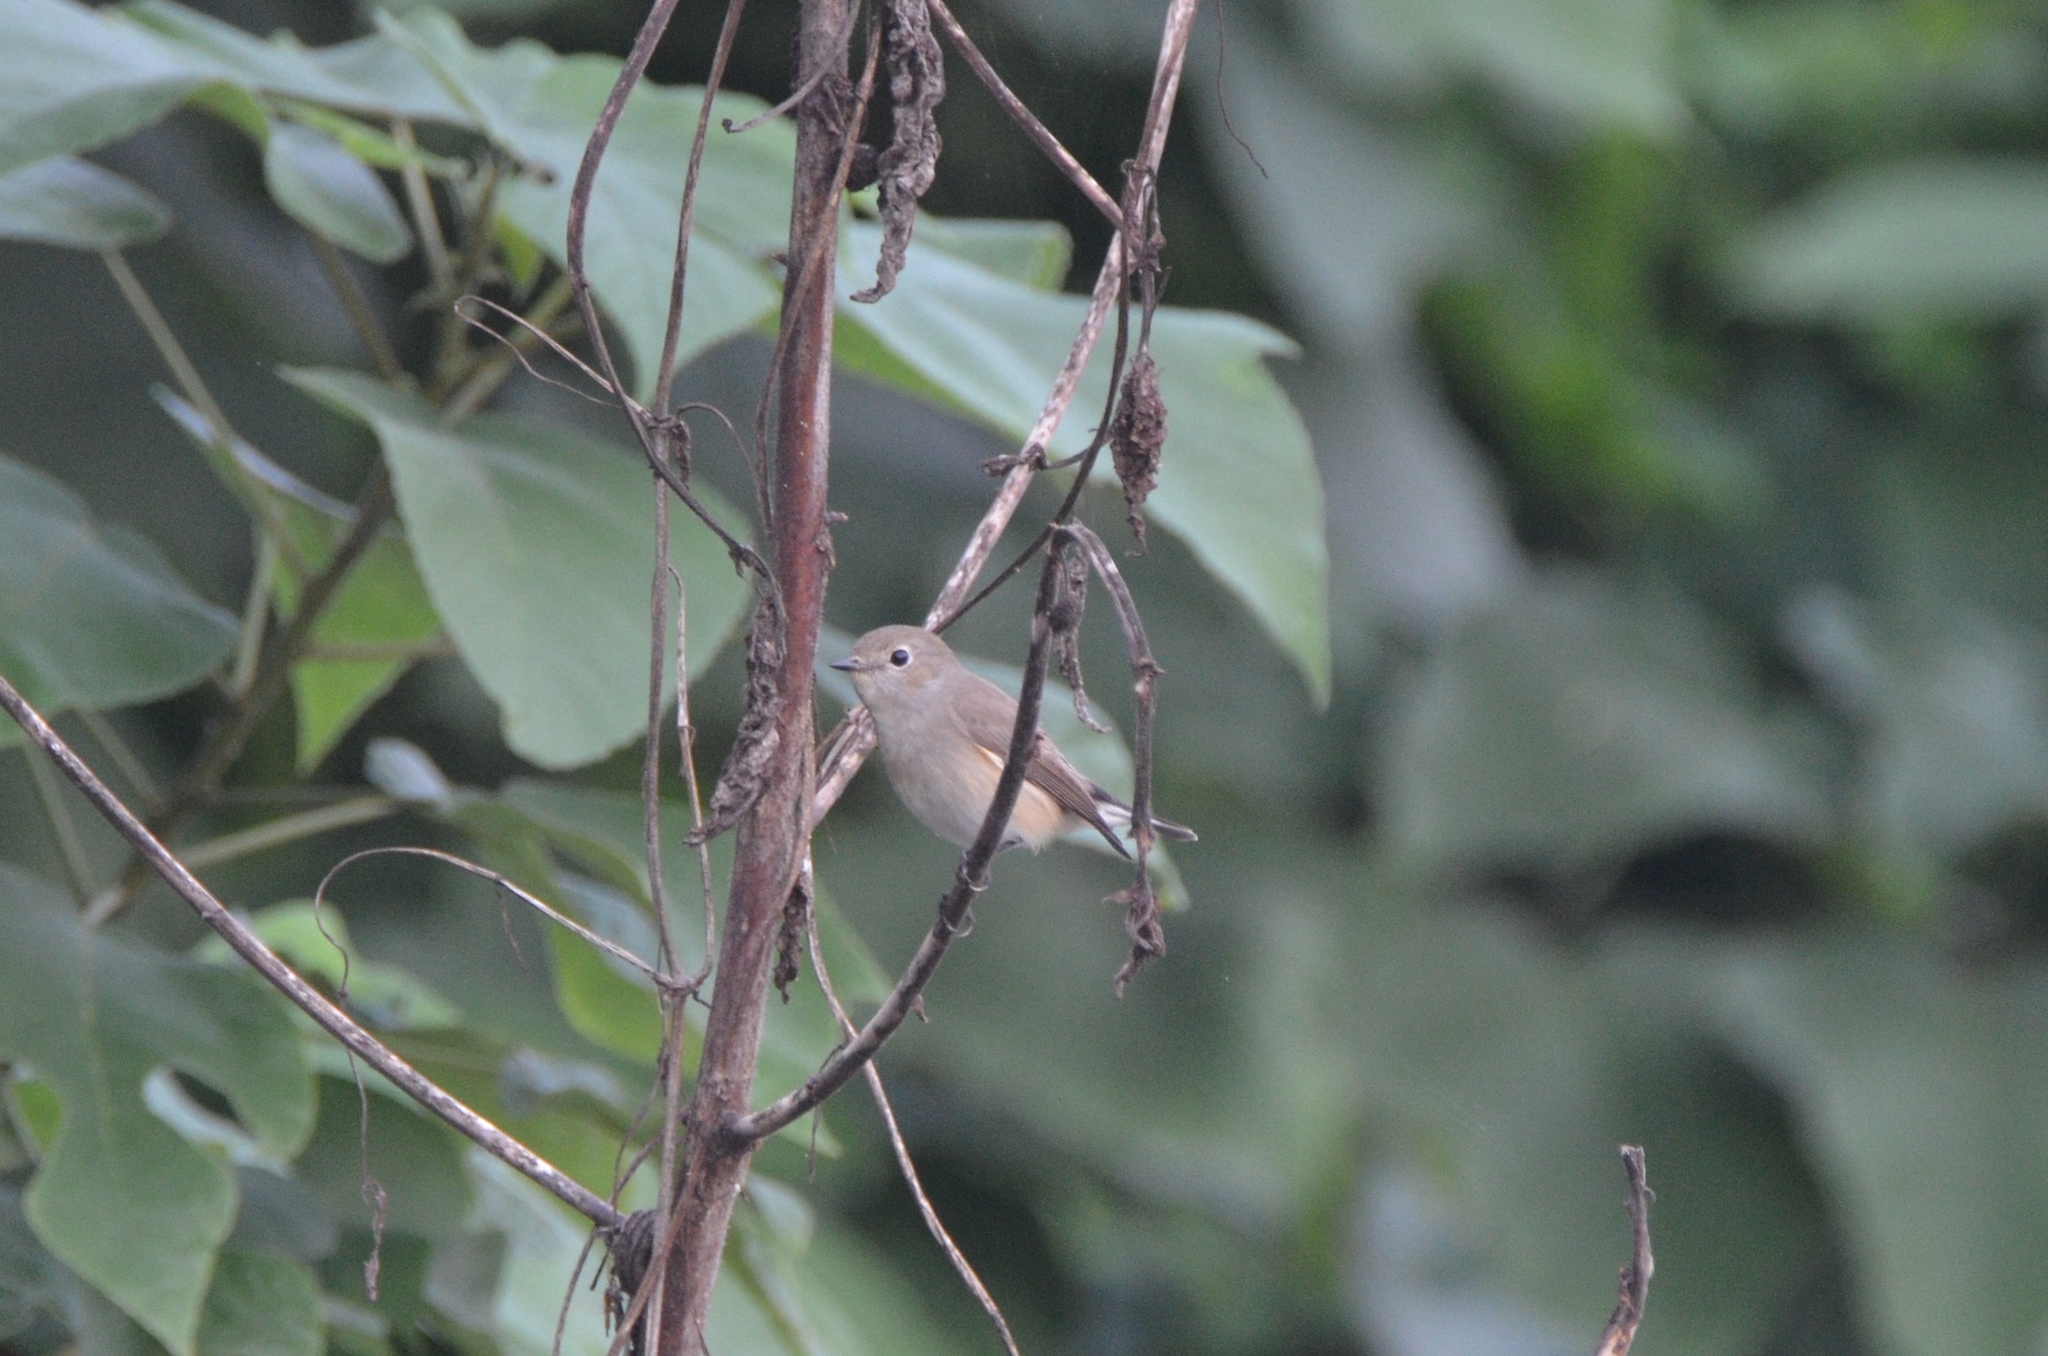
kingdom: Animalia
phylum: Chordata
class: Aves
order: Passeriformes
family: Muscicapidae
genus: Ficedula
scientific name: Ficedula albicilla
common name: Taiga flycatcher
